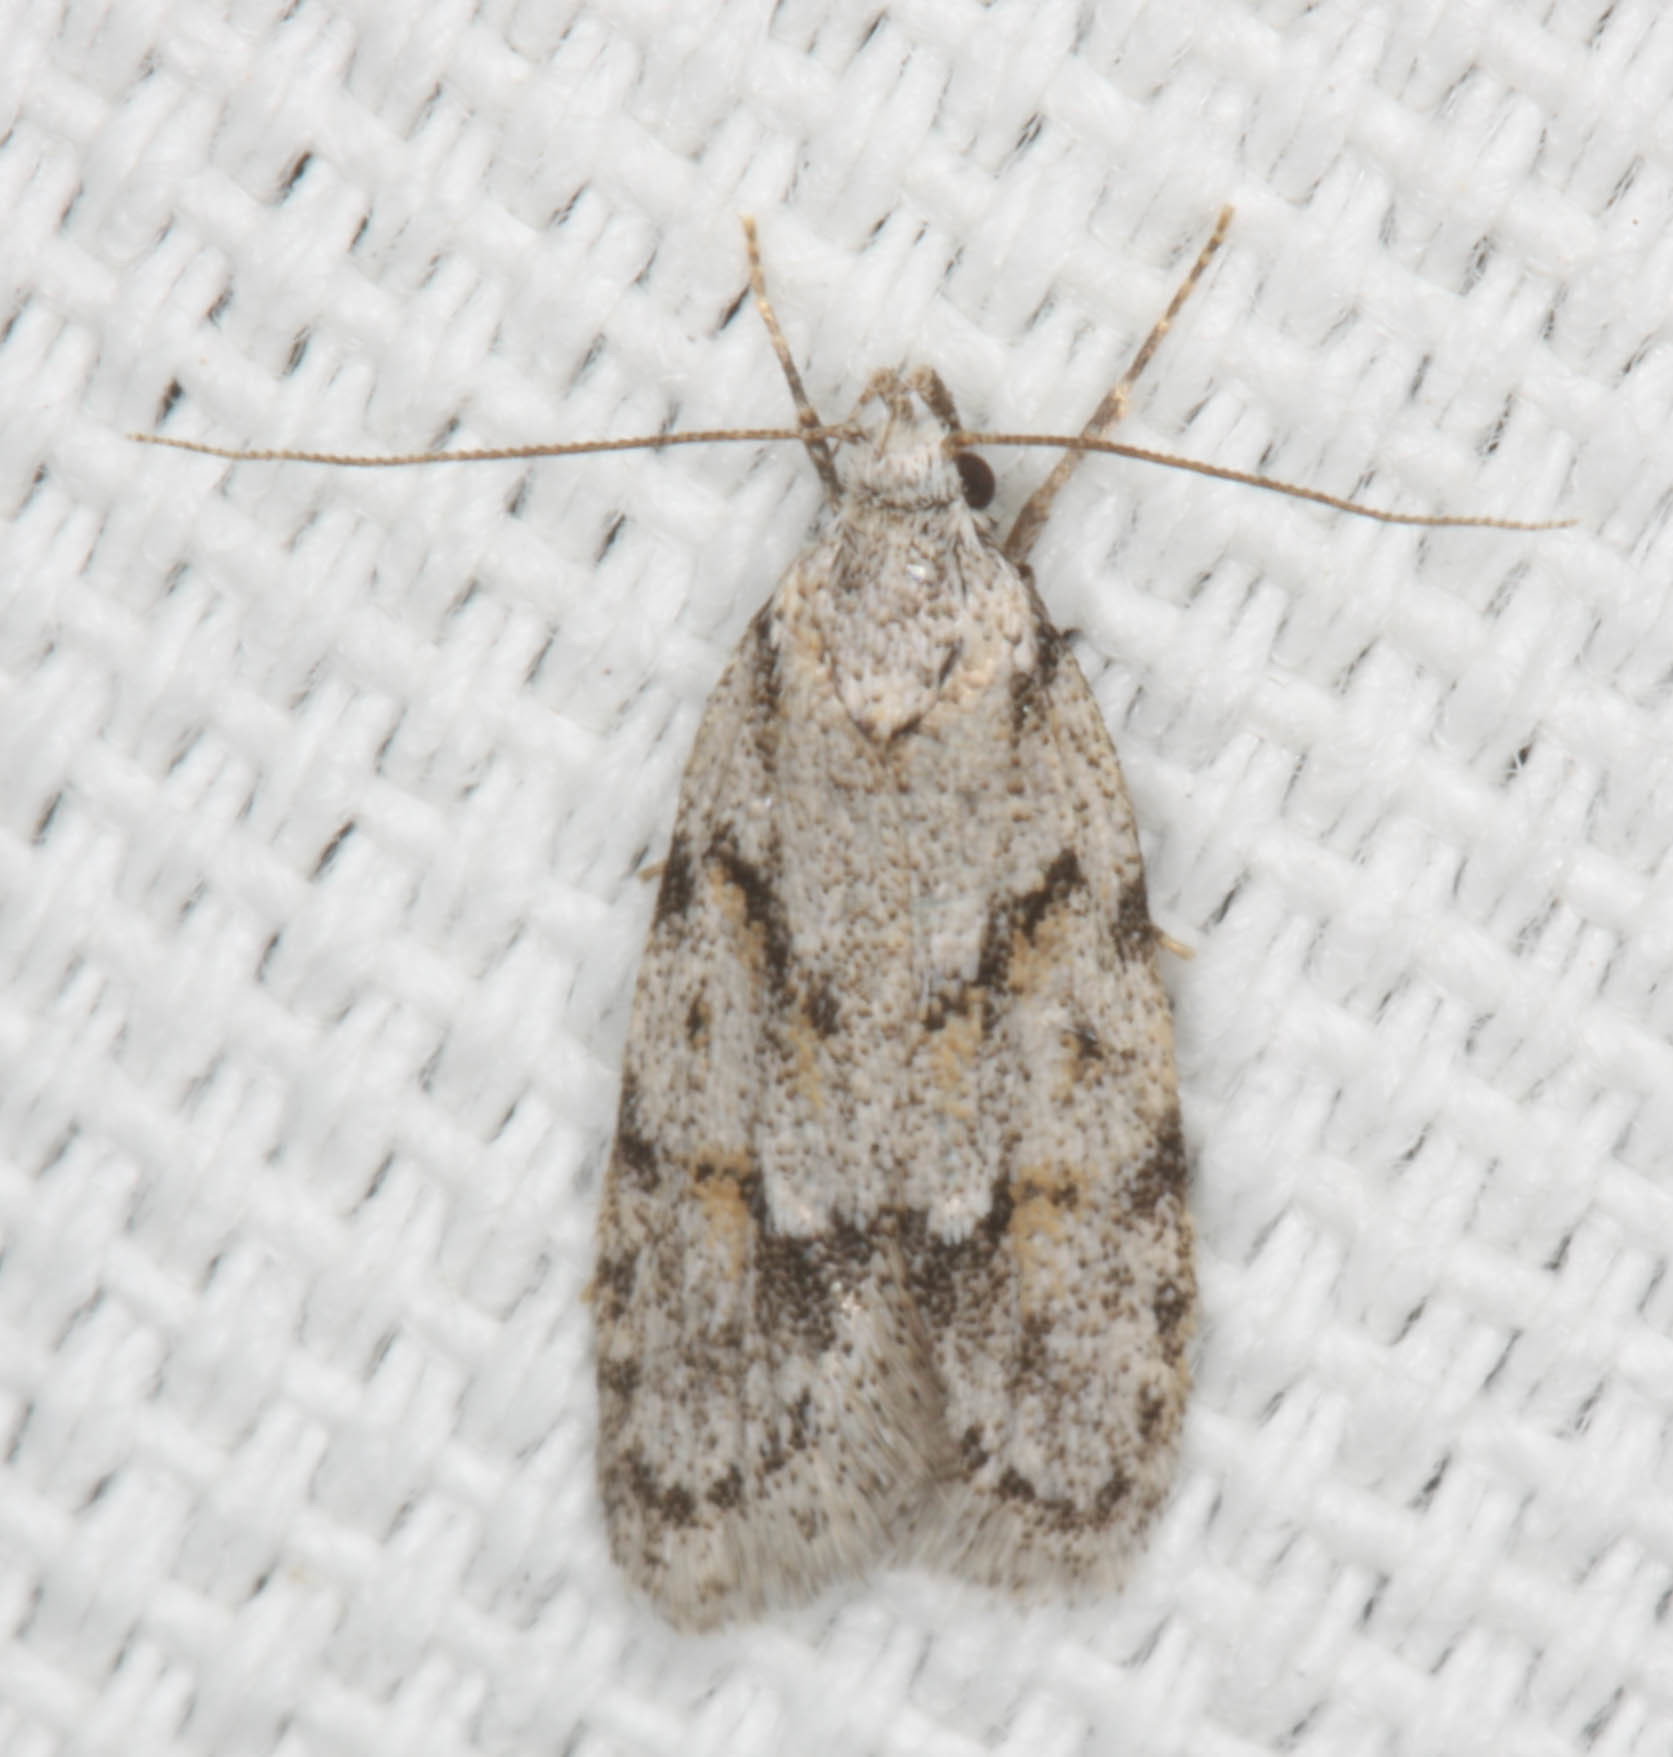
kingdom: Animalia
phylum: Arthropoda
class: Insecta
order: Lepidoptera
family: Autostichidae
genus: Symmoca
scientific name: Symmoca signatella
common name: Dockland obscure
